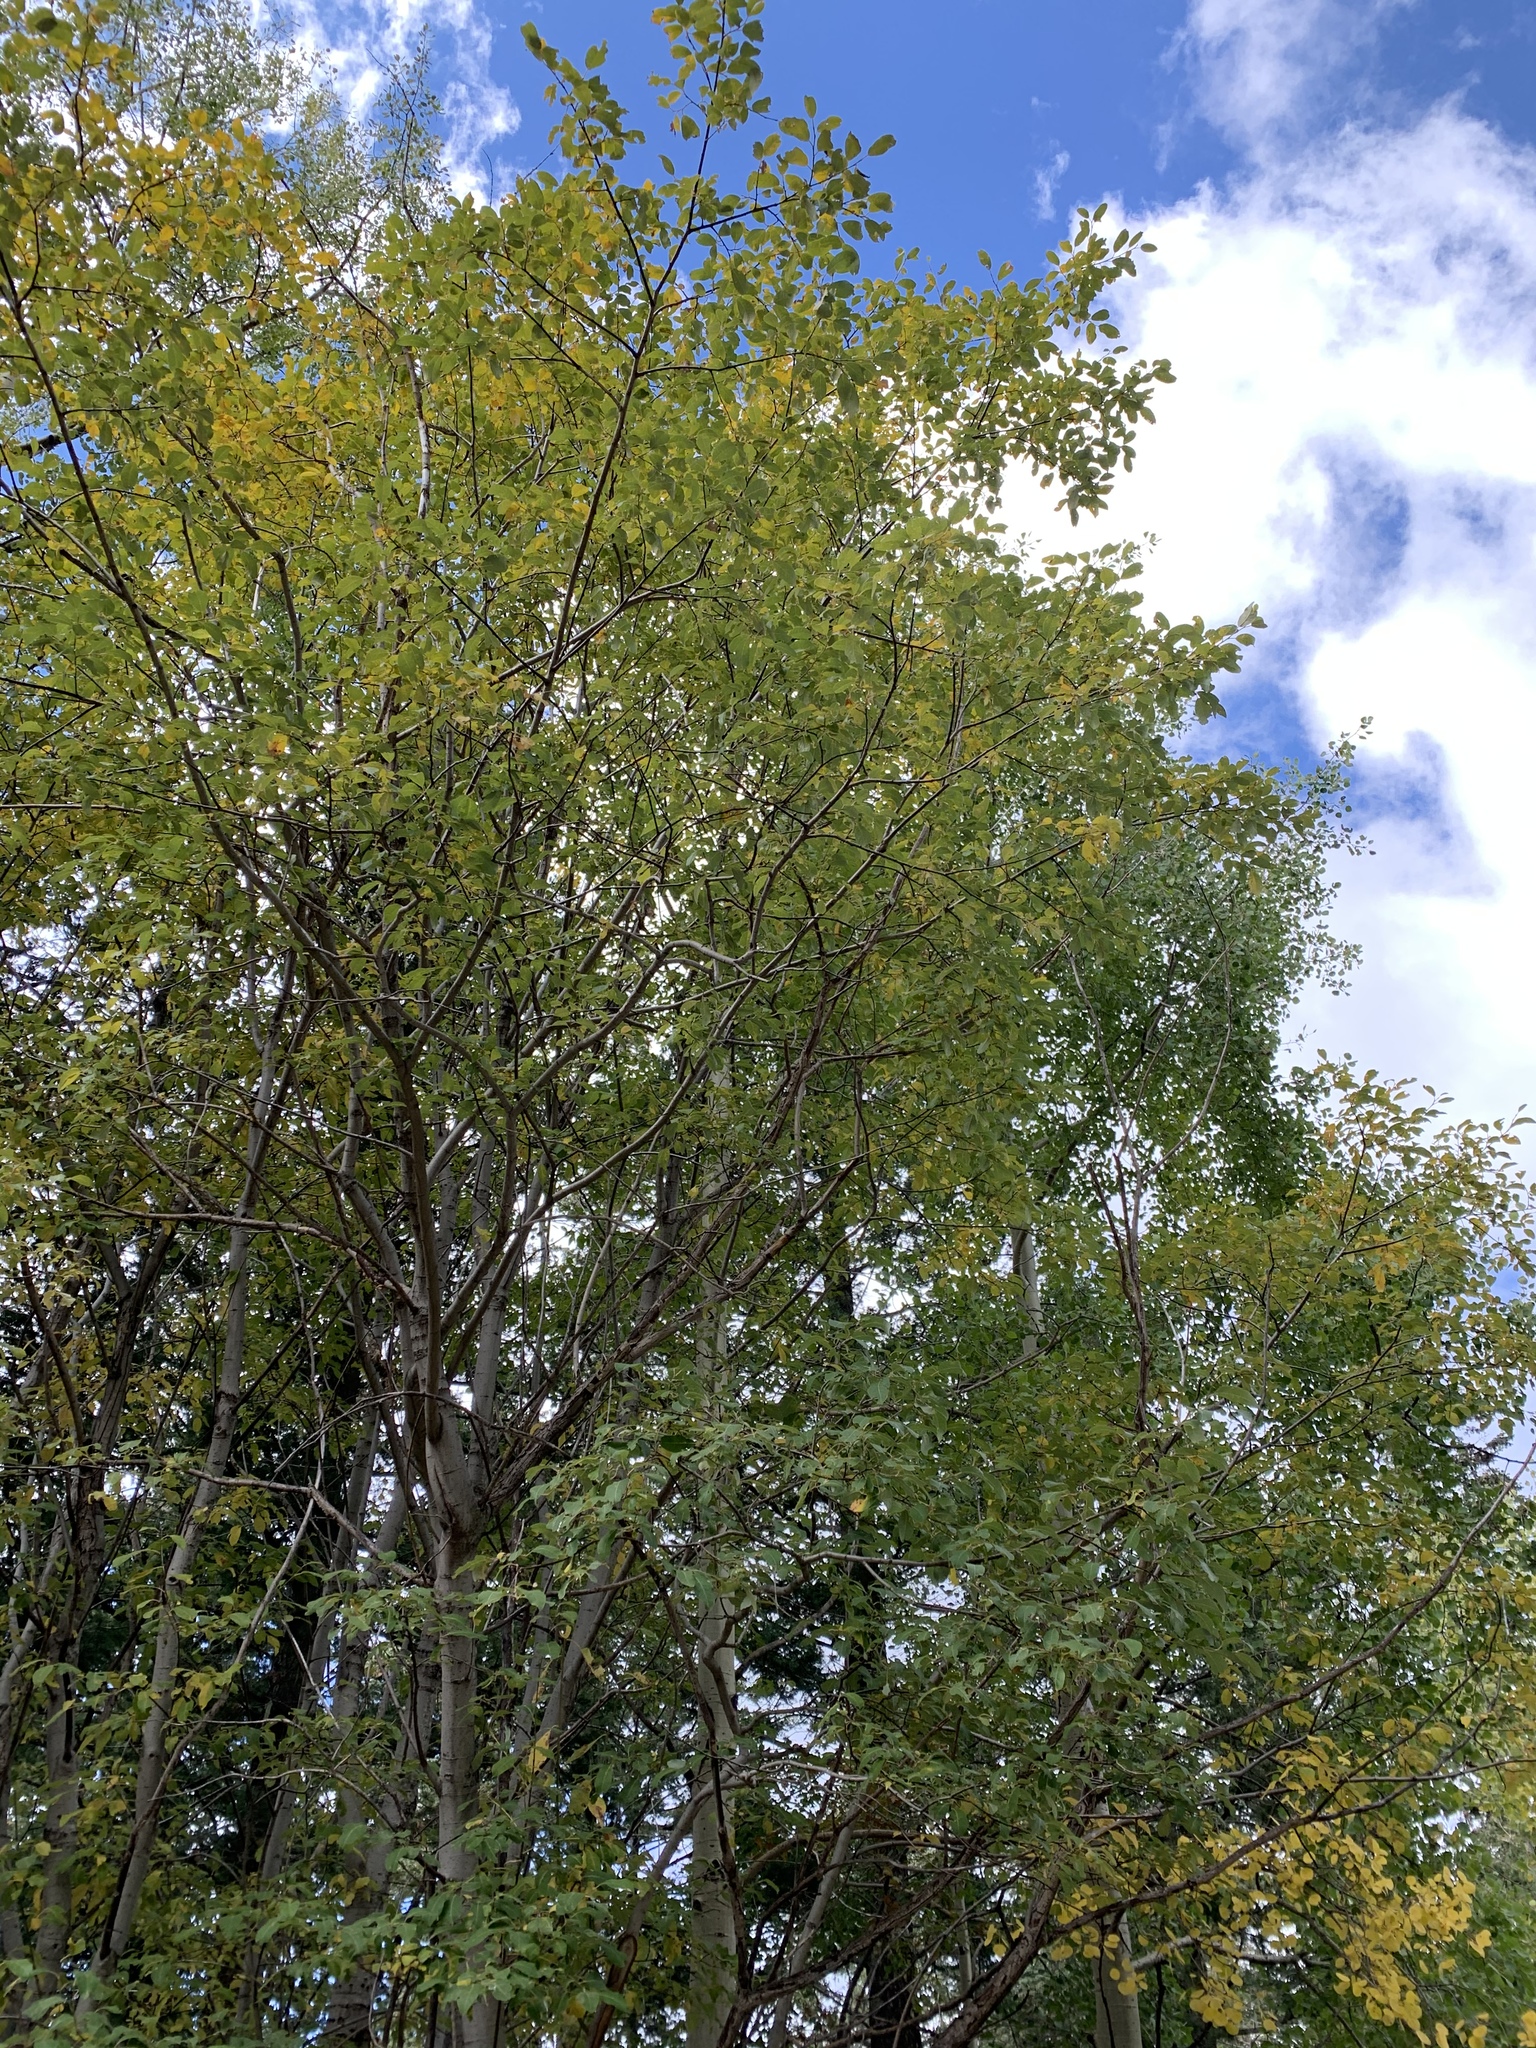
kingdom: Plantae
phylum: Tracheophyta
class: Magnoliopsida
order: Fabales
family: Fabaceae
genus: Robinia
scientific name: Robinia neomexicana
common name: New mexico locust
